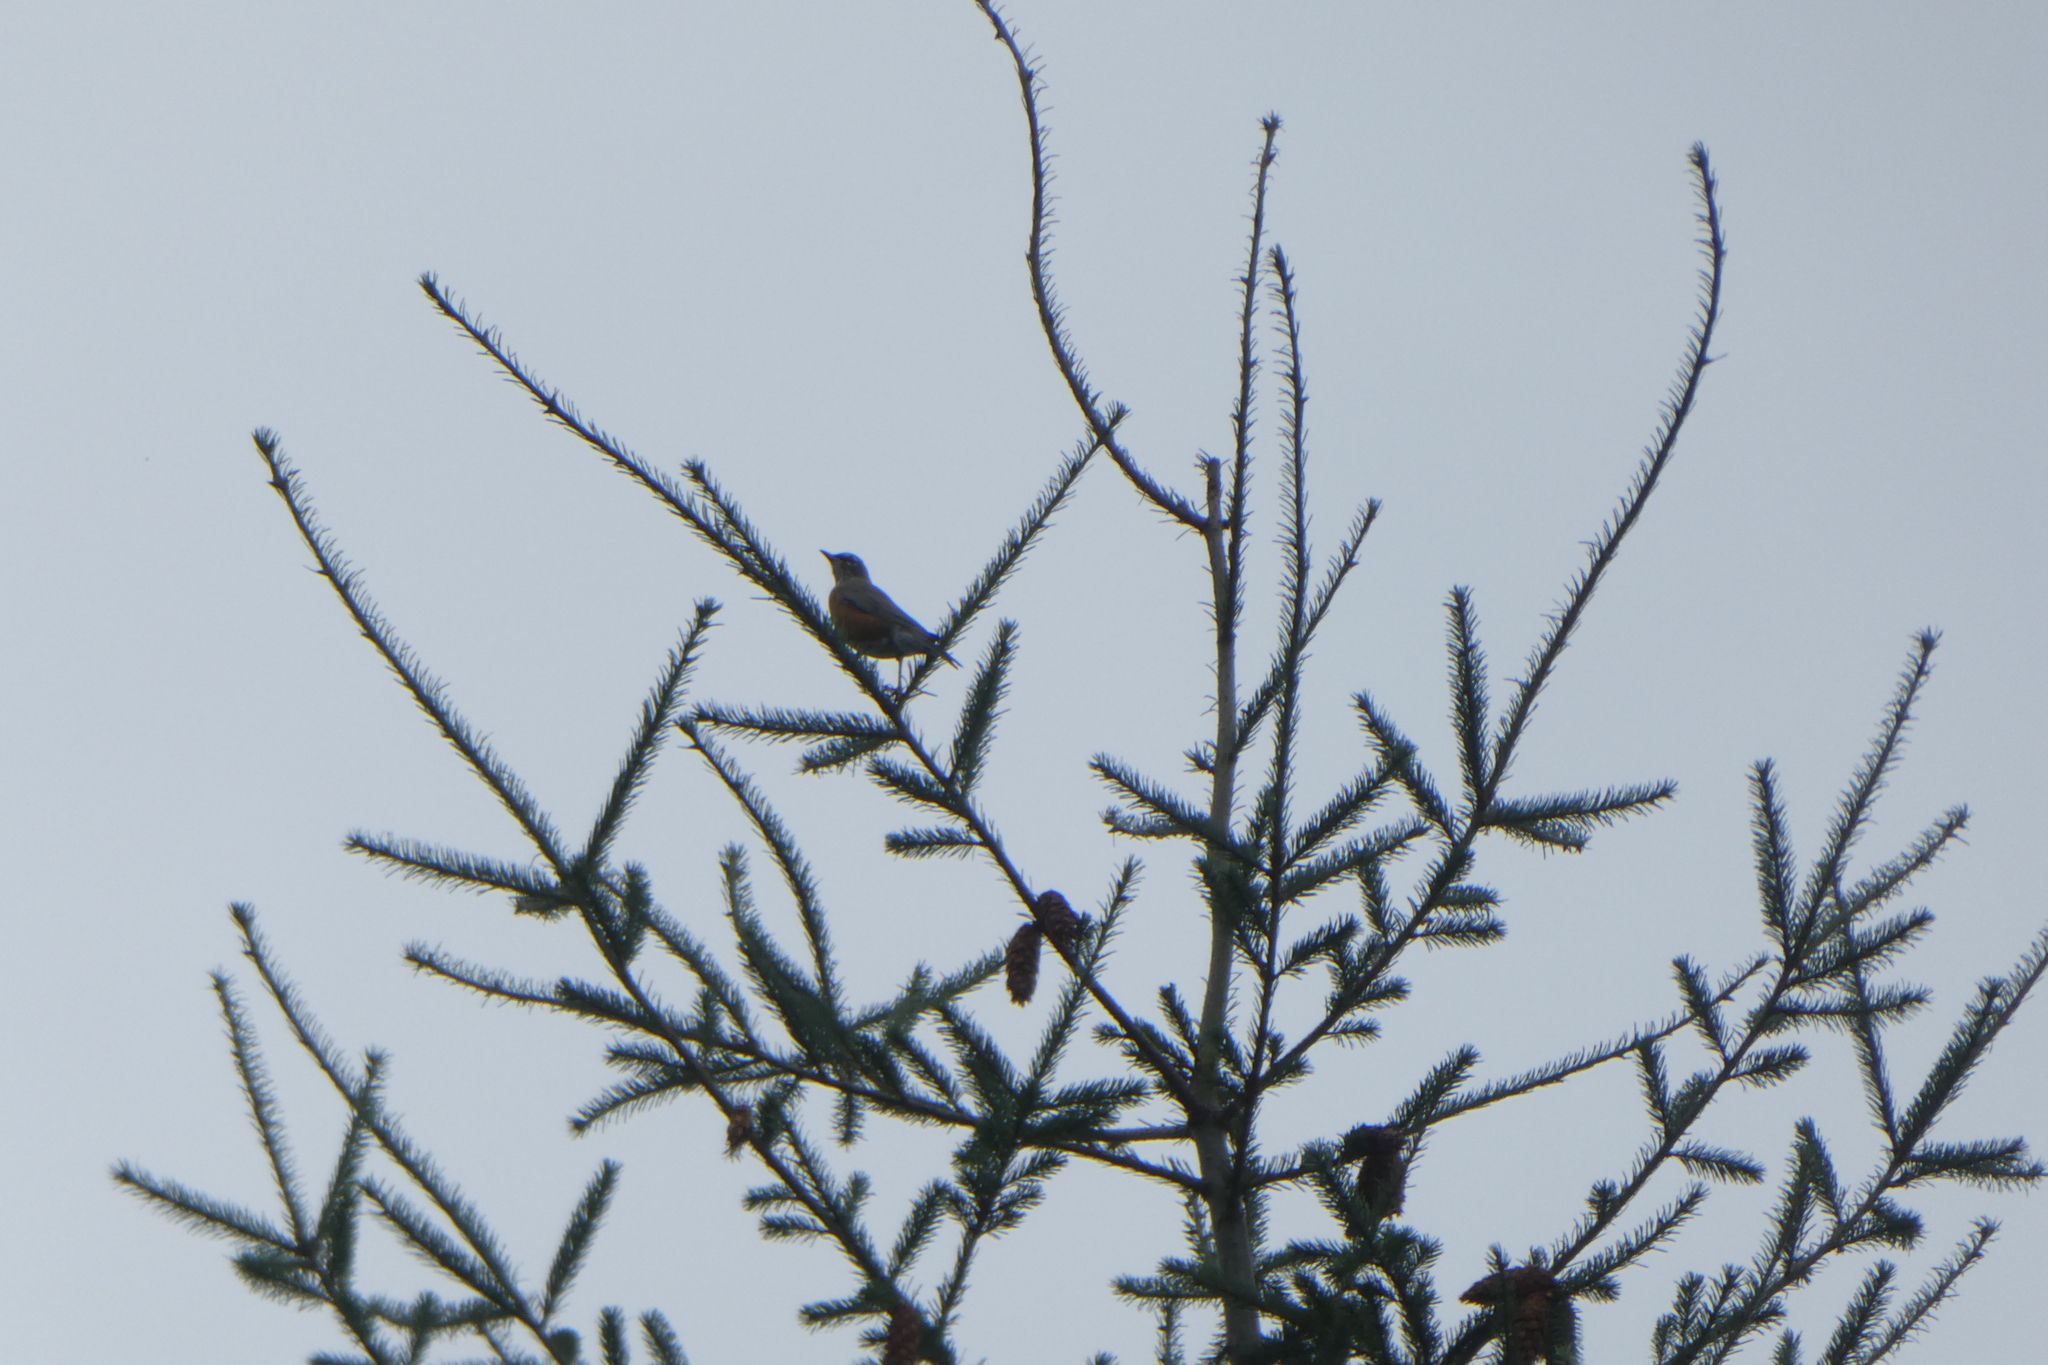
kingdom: Animalia
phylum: Chordata
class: Aves
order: Passeriformes
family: Turdidae
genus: Turdus
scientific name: Turdus migratorius
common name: American robin
